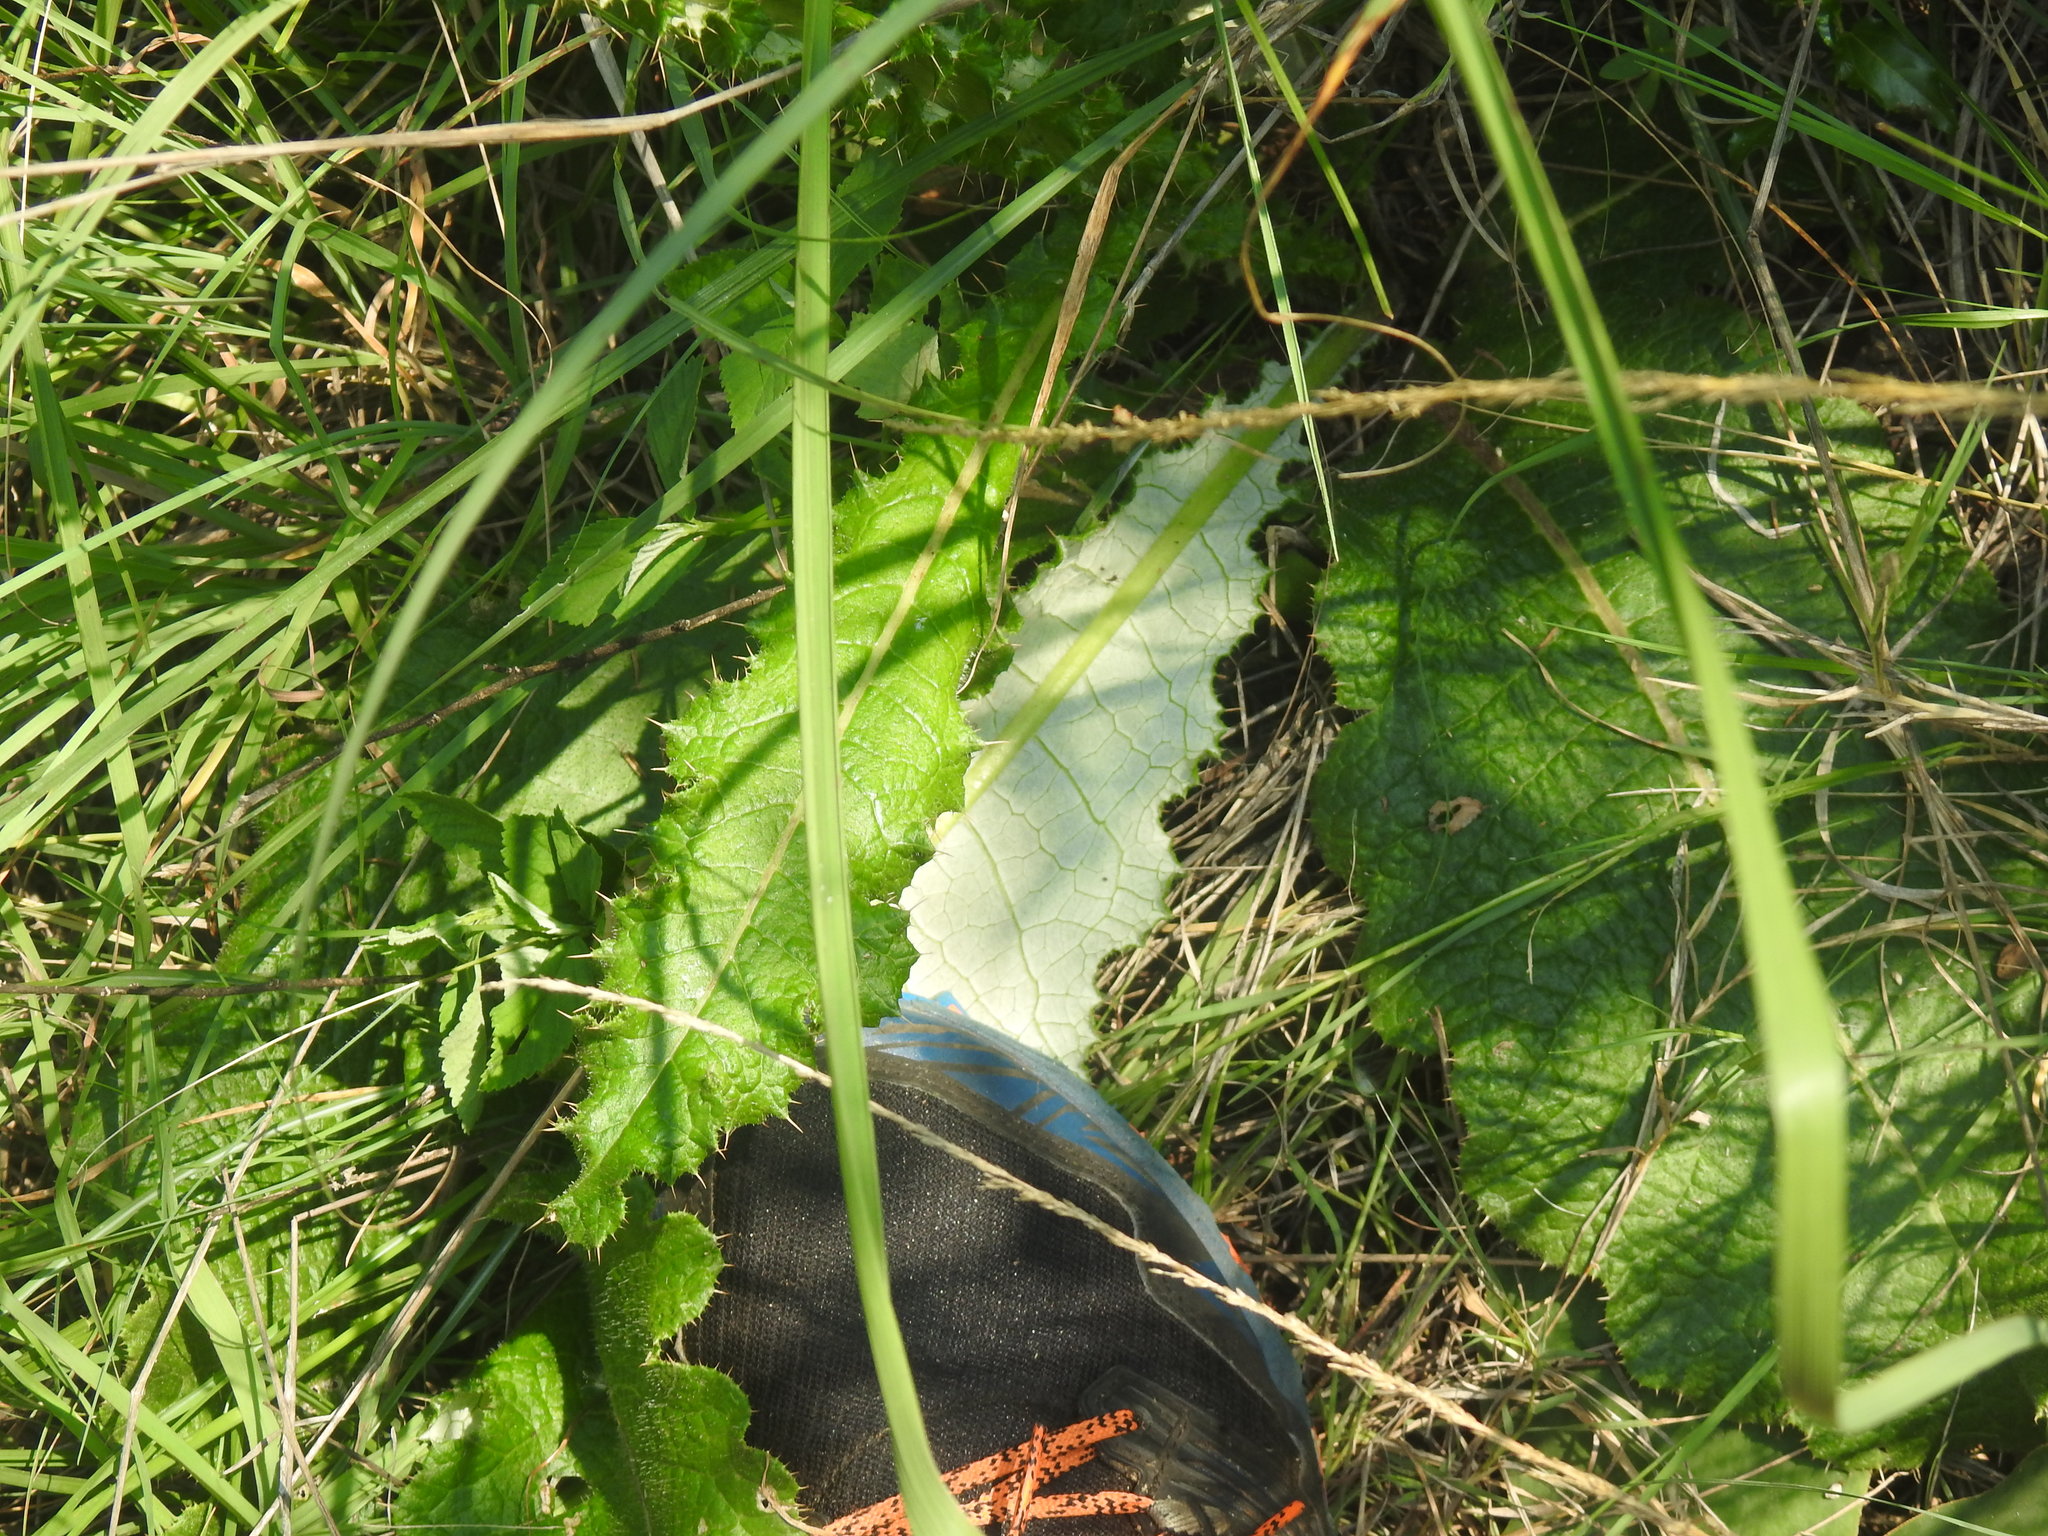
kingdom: Plantae
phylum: Tracheophyta
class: Magnoliopsida
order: Asterales
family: Asteraceae
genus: Berkheya
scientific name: Berkheya radula
